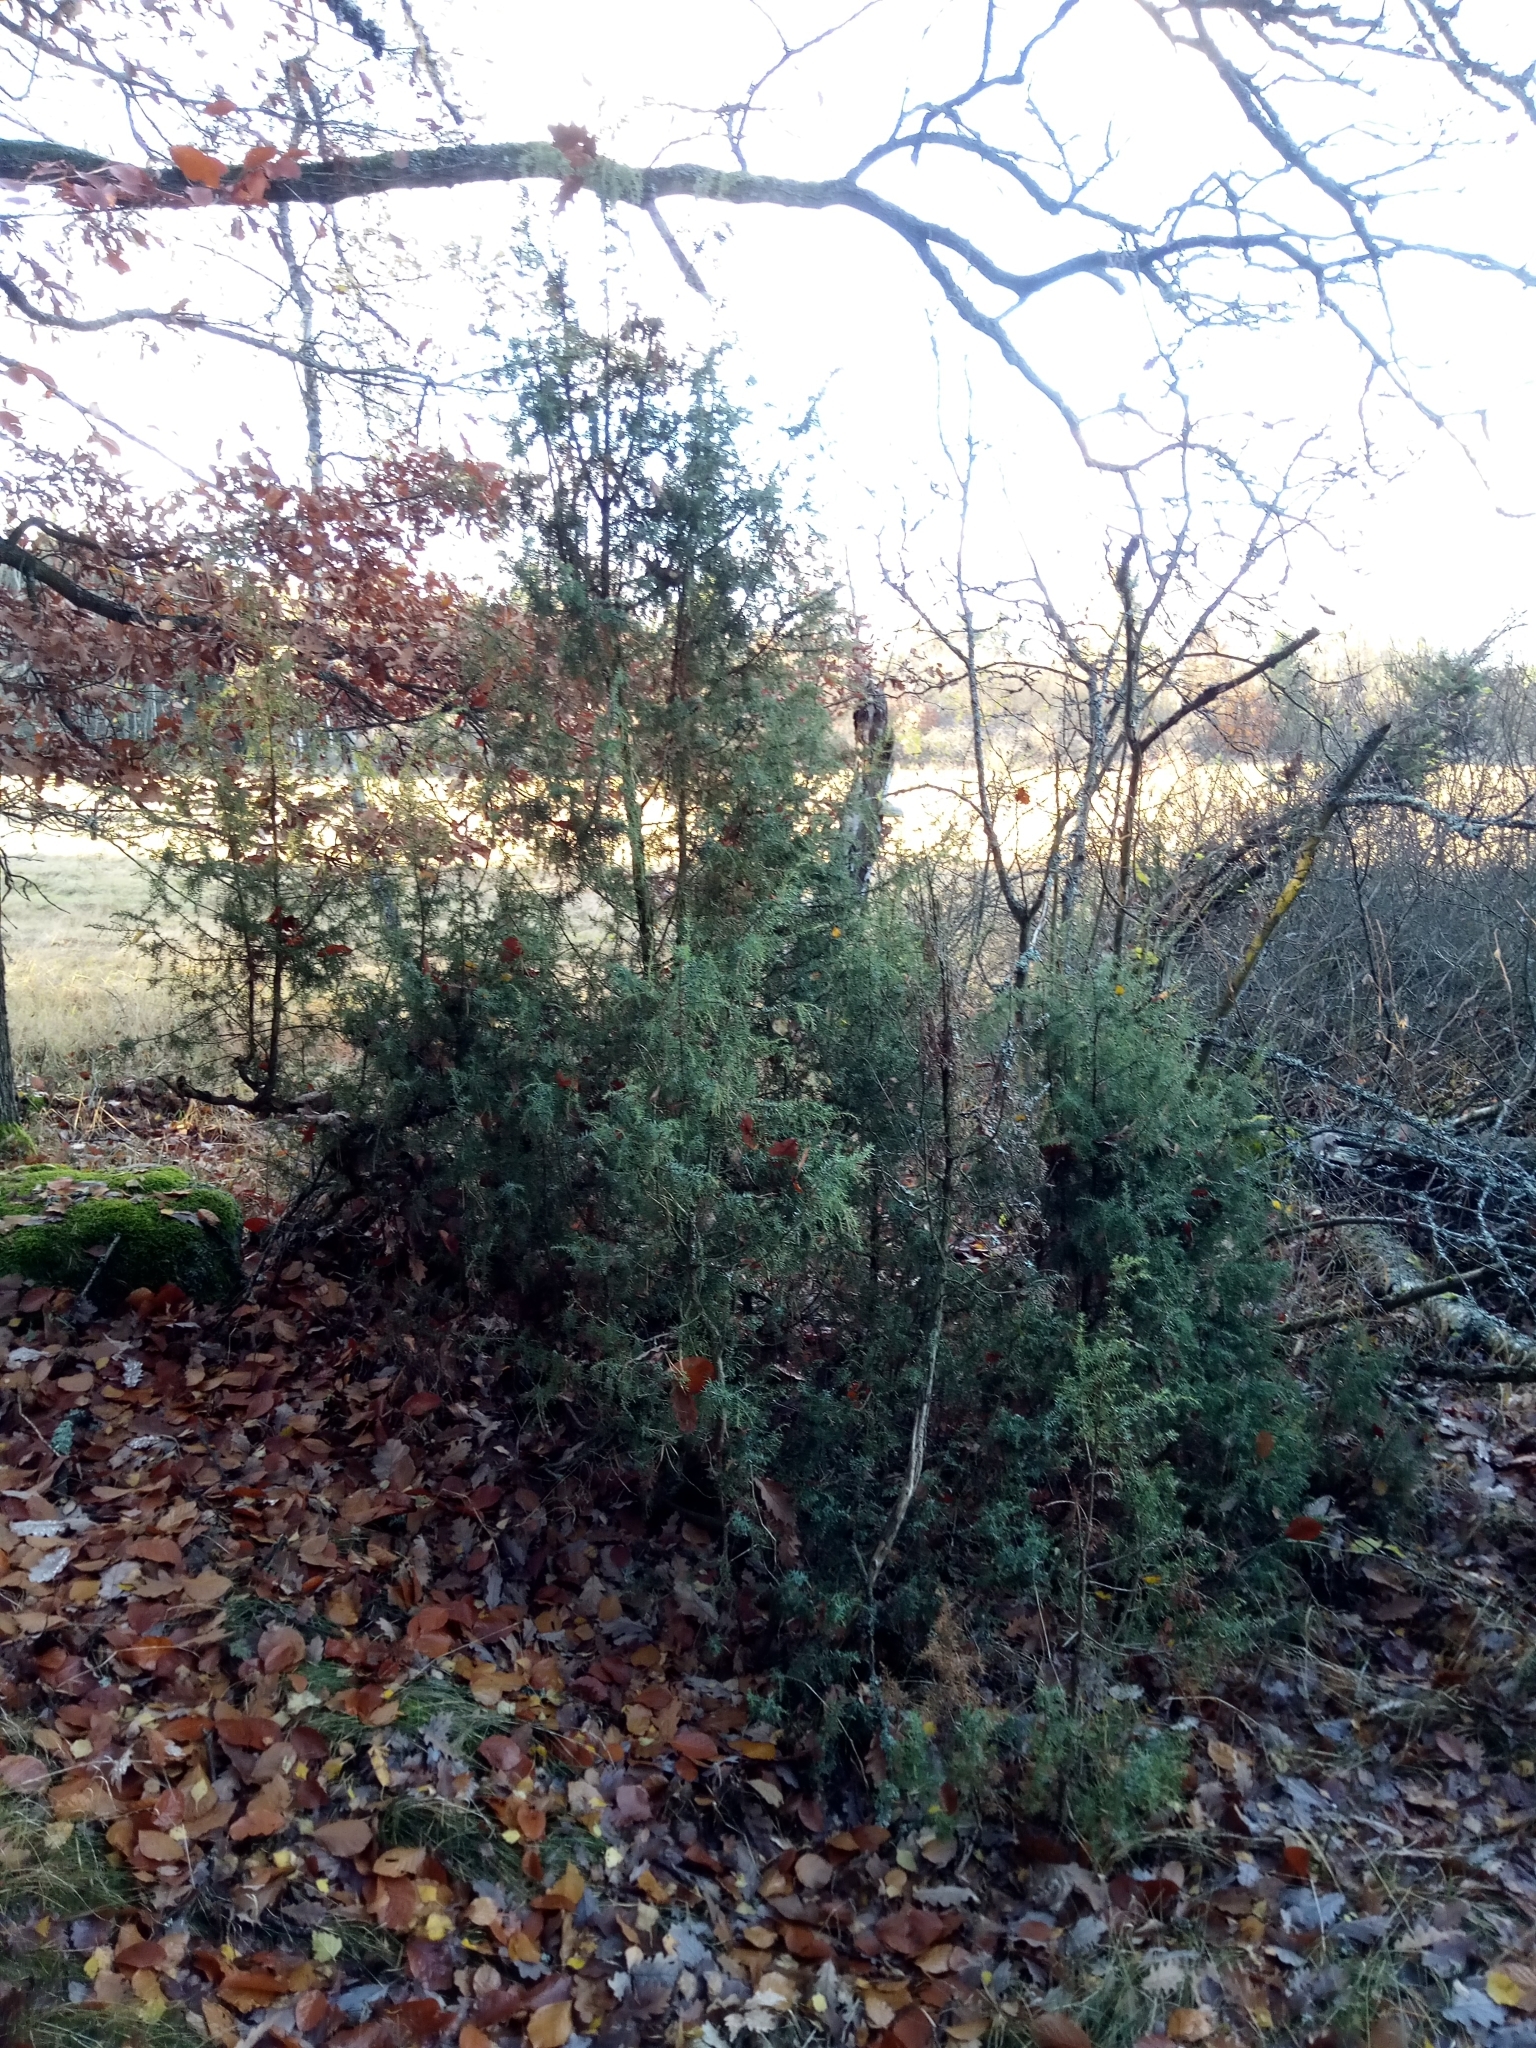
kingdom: Plantae
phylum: Tracheophyta
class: Pinopsida
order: Pinales
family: Cupressaceae
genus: Juniperus
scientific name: Juniperus communis
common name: Common juniper
